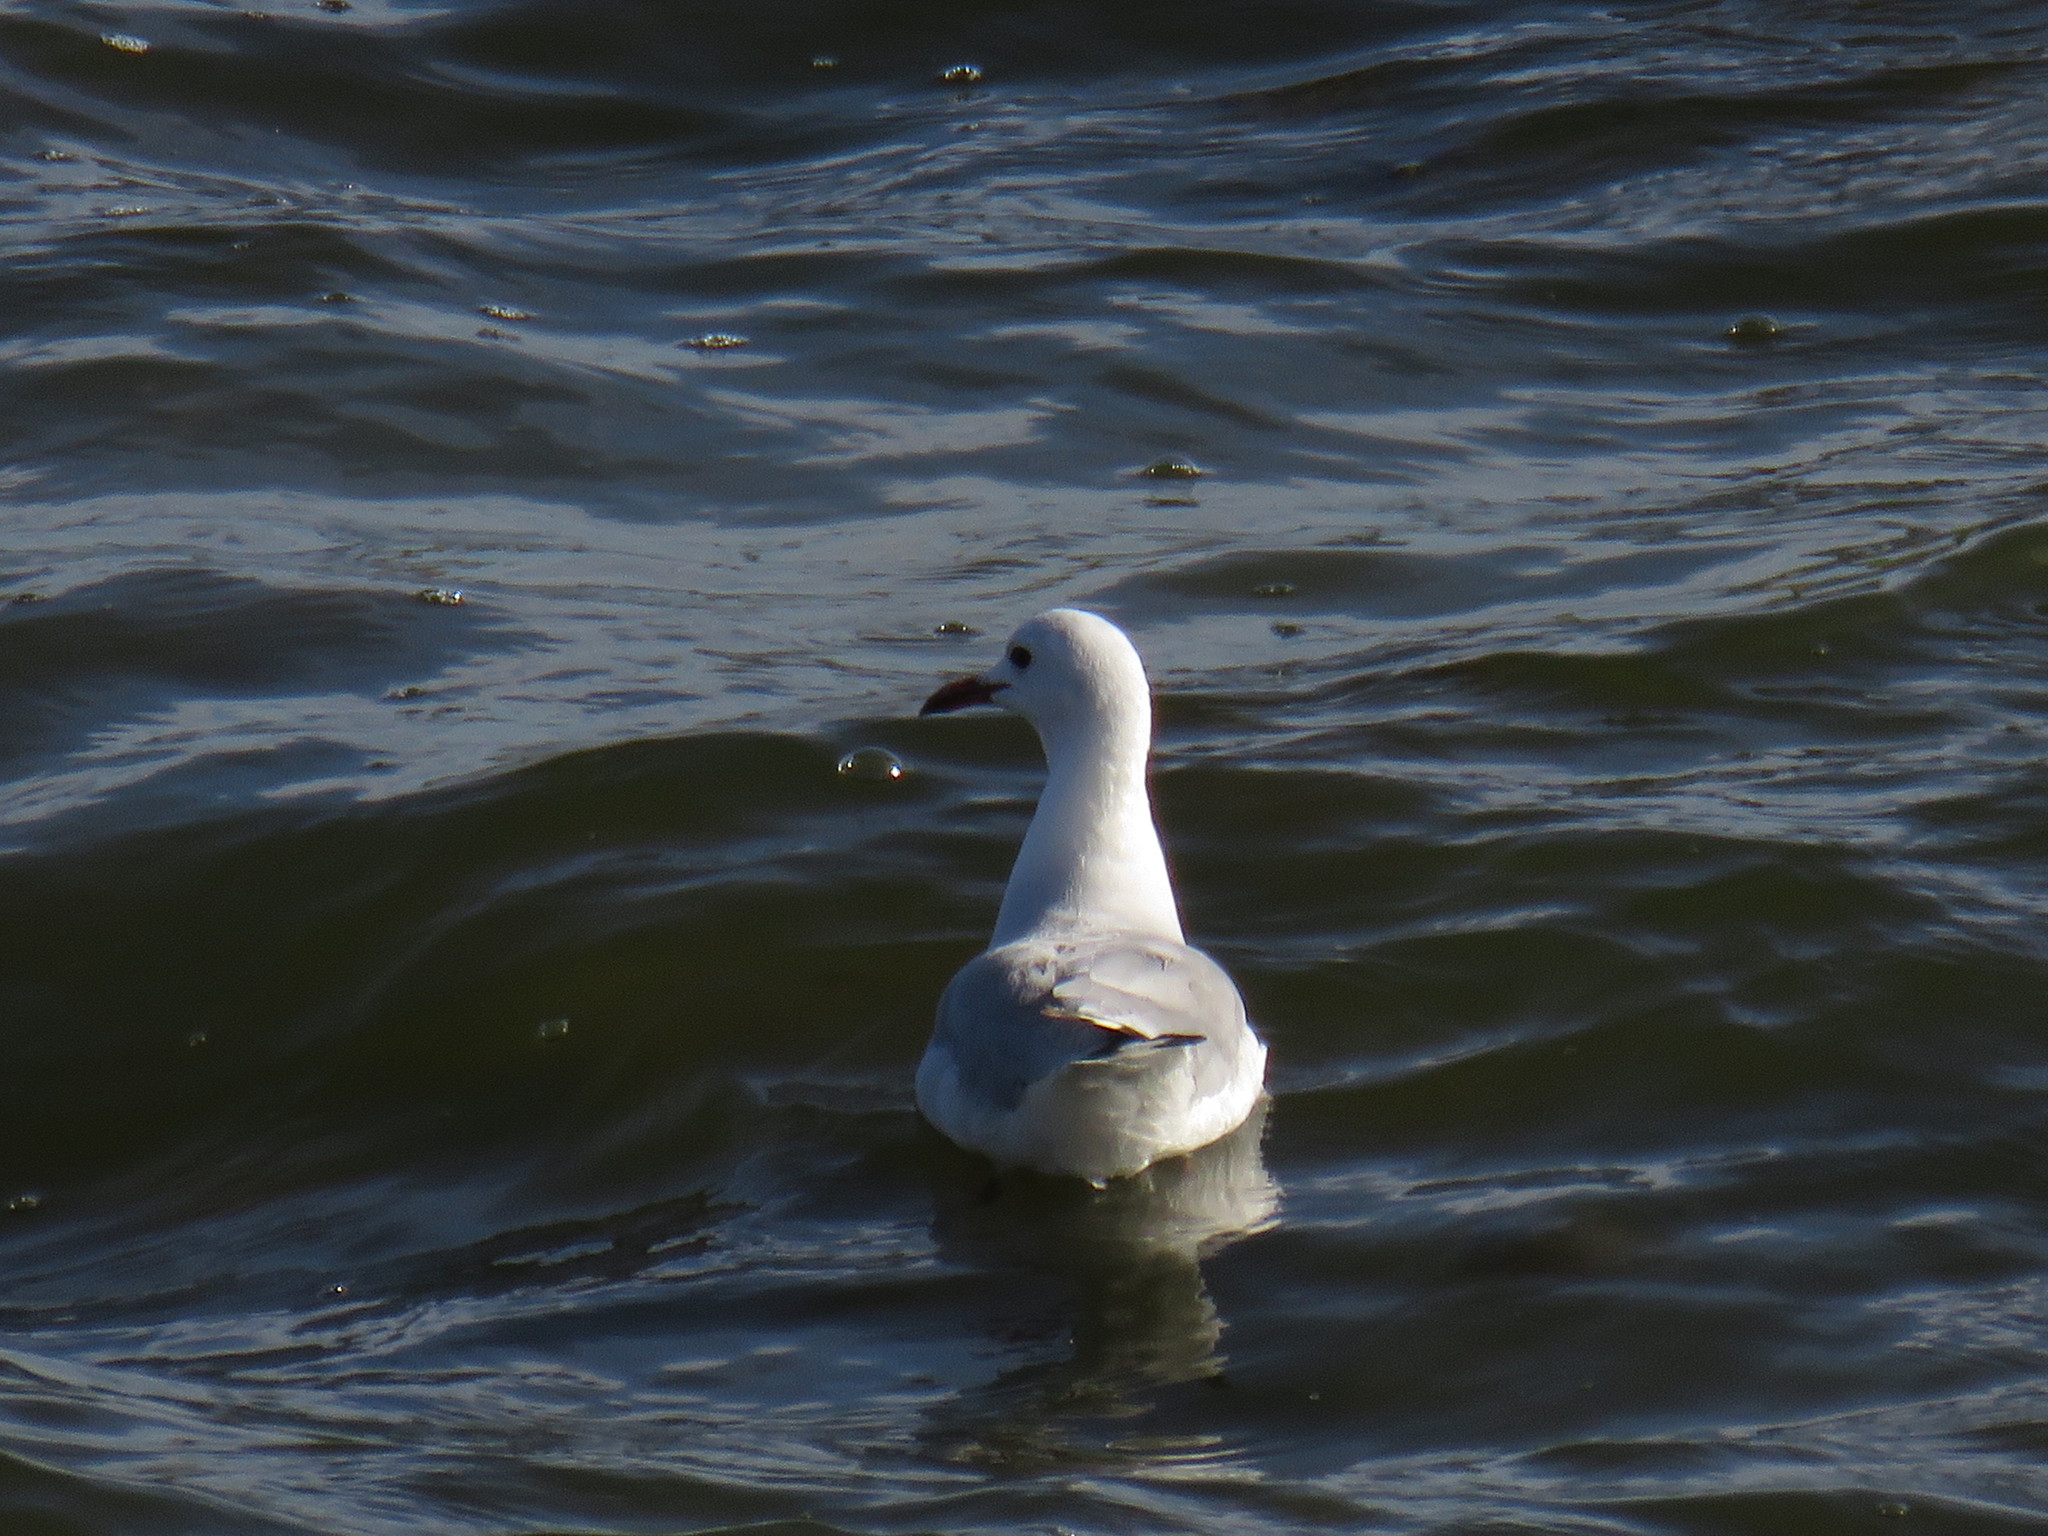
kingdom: Animalia
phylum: Chordata
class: Aves
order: Charadriiformes
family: Laridae
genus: Chroicocephalus
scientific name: Chroicocephalus hartlaubii
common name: Hartlaub's gull
